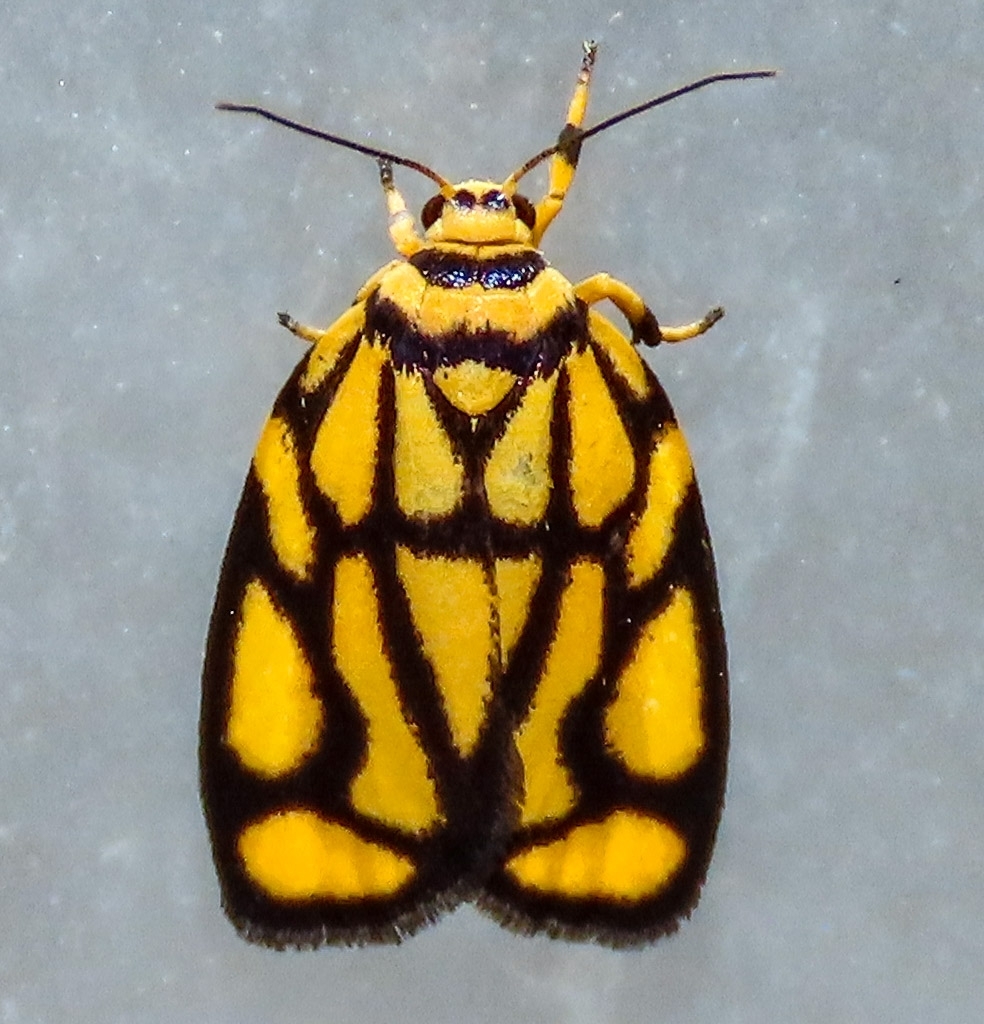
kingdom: Animalia
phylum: Arthropoda
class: Insecta
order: Lepidoptera
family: Erebidae
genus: Darantasia
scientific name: Darantasia cuneiplena
